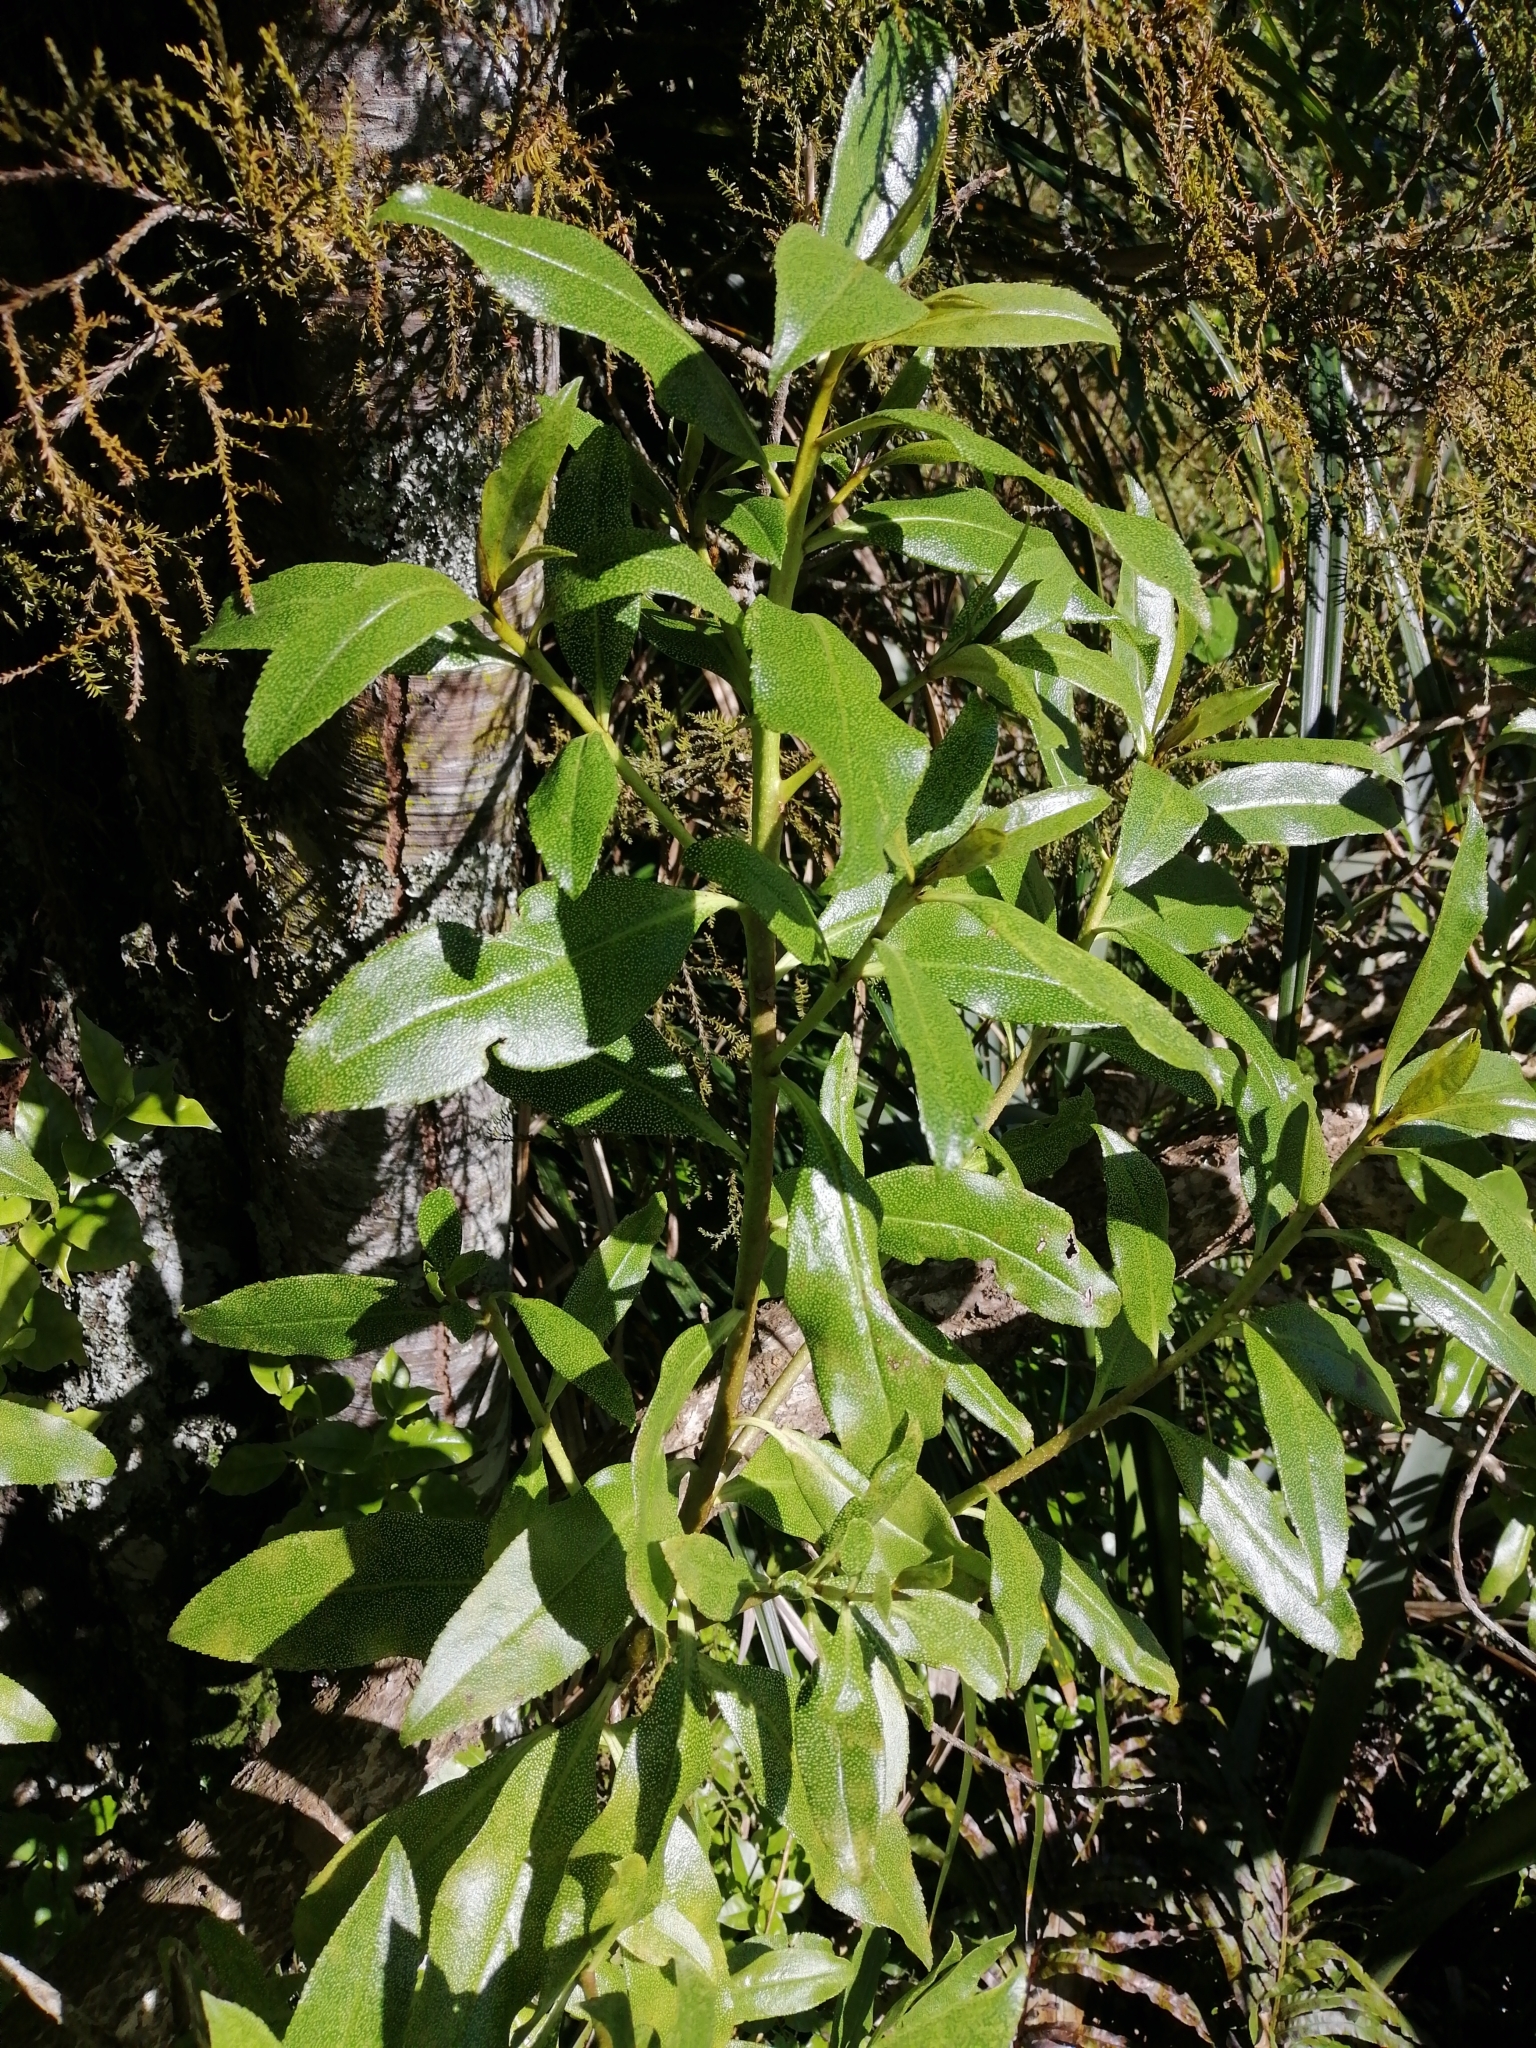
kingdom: Plantae
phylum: Tracheophyta
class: Magnoliopsida
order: Lamiales
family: Scrophulariaceae
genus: Myoporum
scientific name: Myoporum laetum
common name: Ngaio tree
